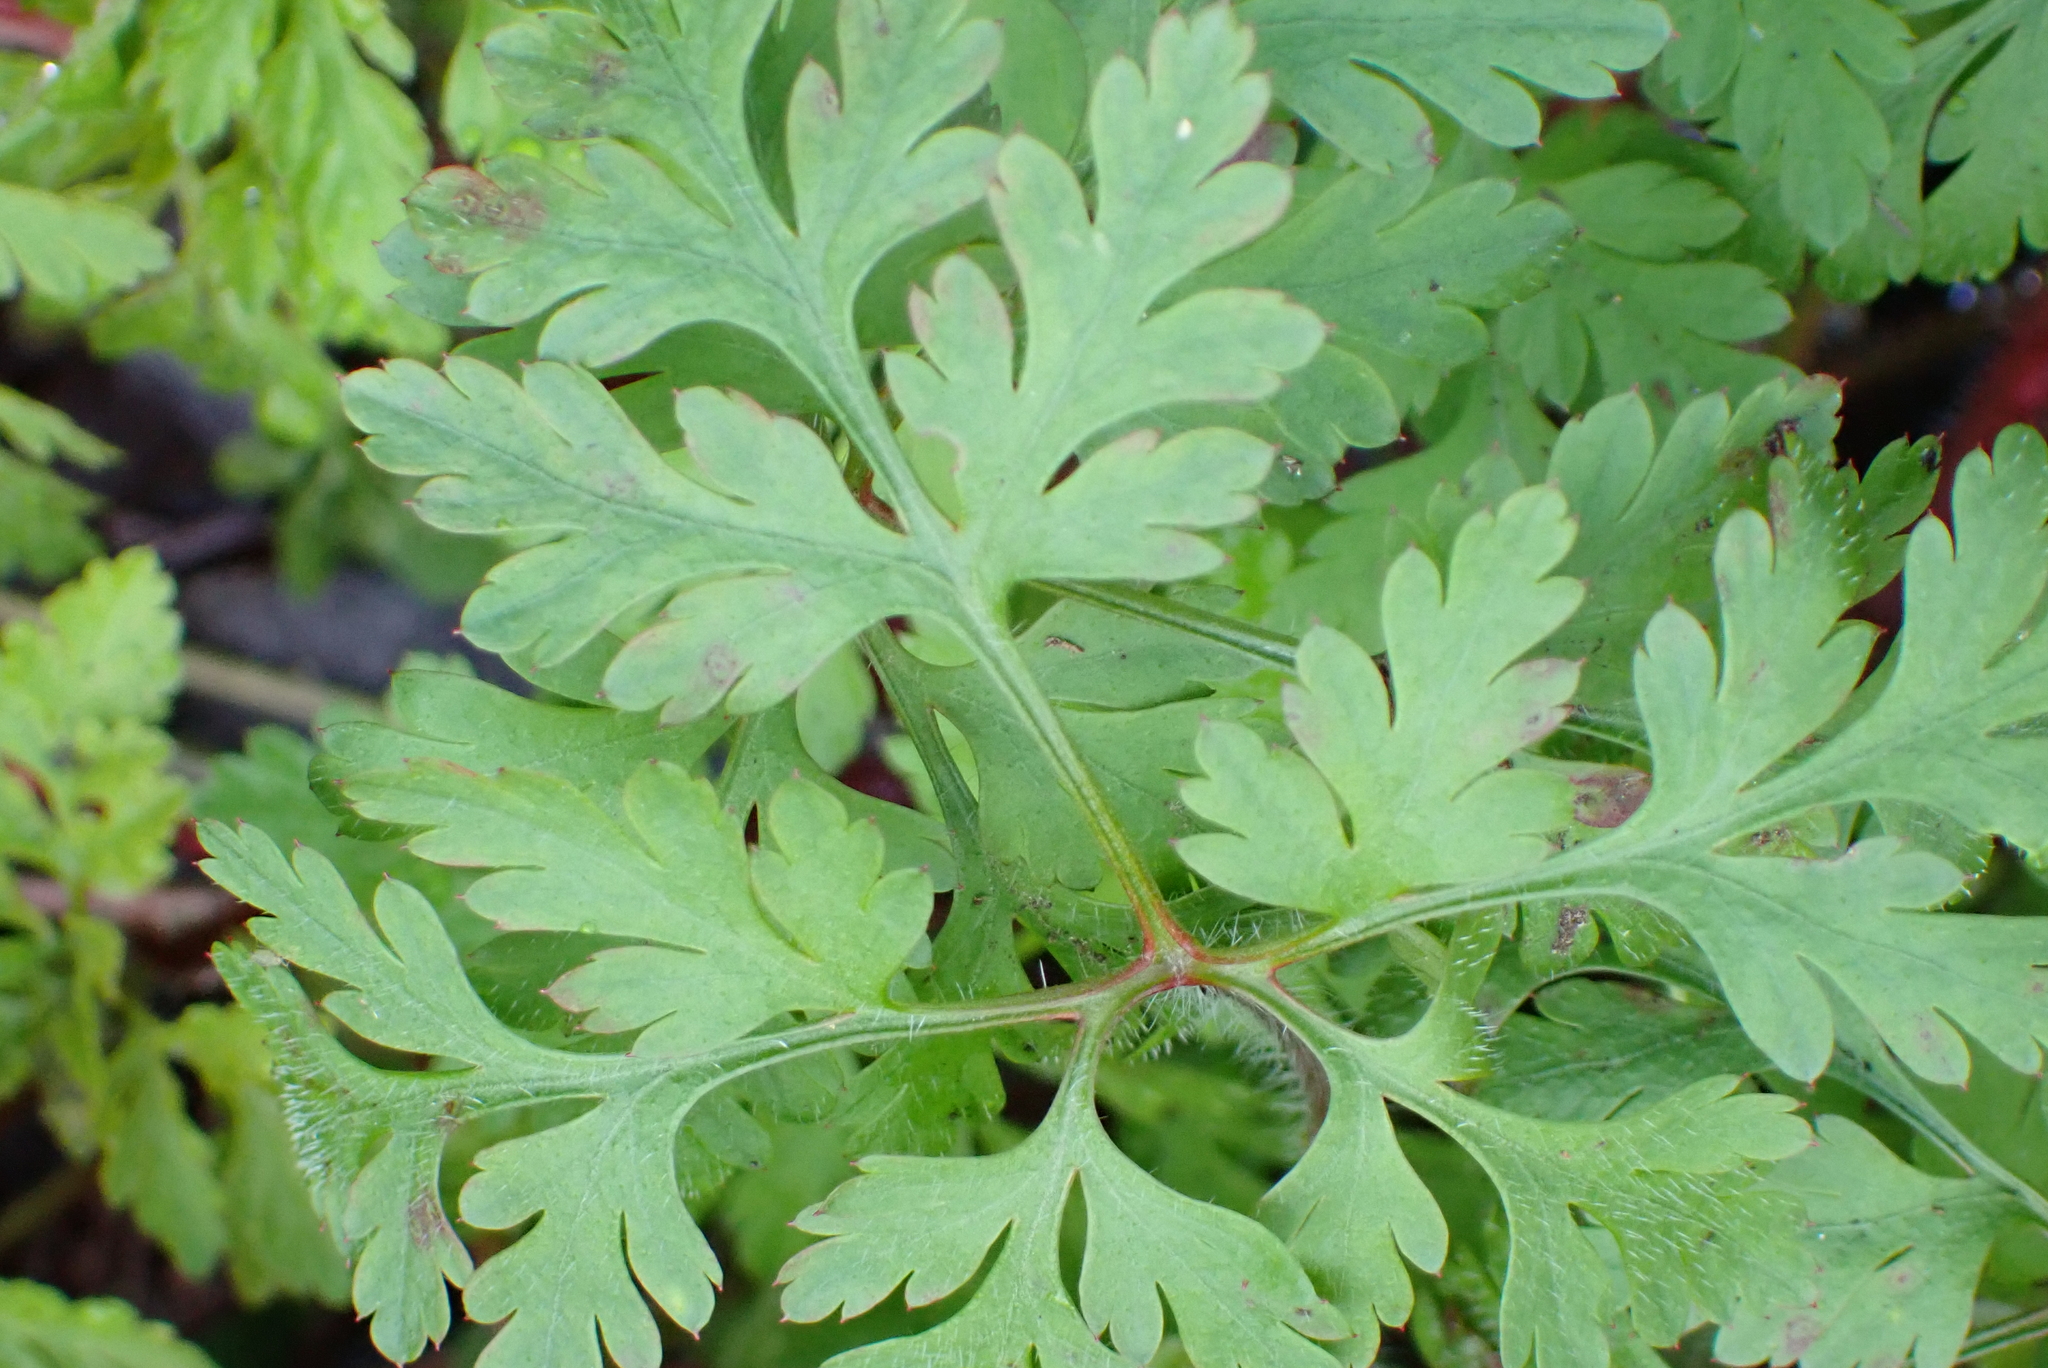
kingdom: Plantae
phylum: Tracheophyta
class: Magnoliopsida
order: Geraniales
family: Geraniaceae
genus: Geranium
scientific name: Geranium robertianum
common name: Herb-robert
